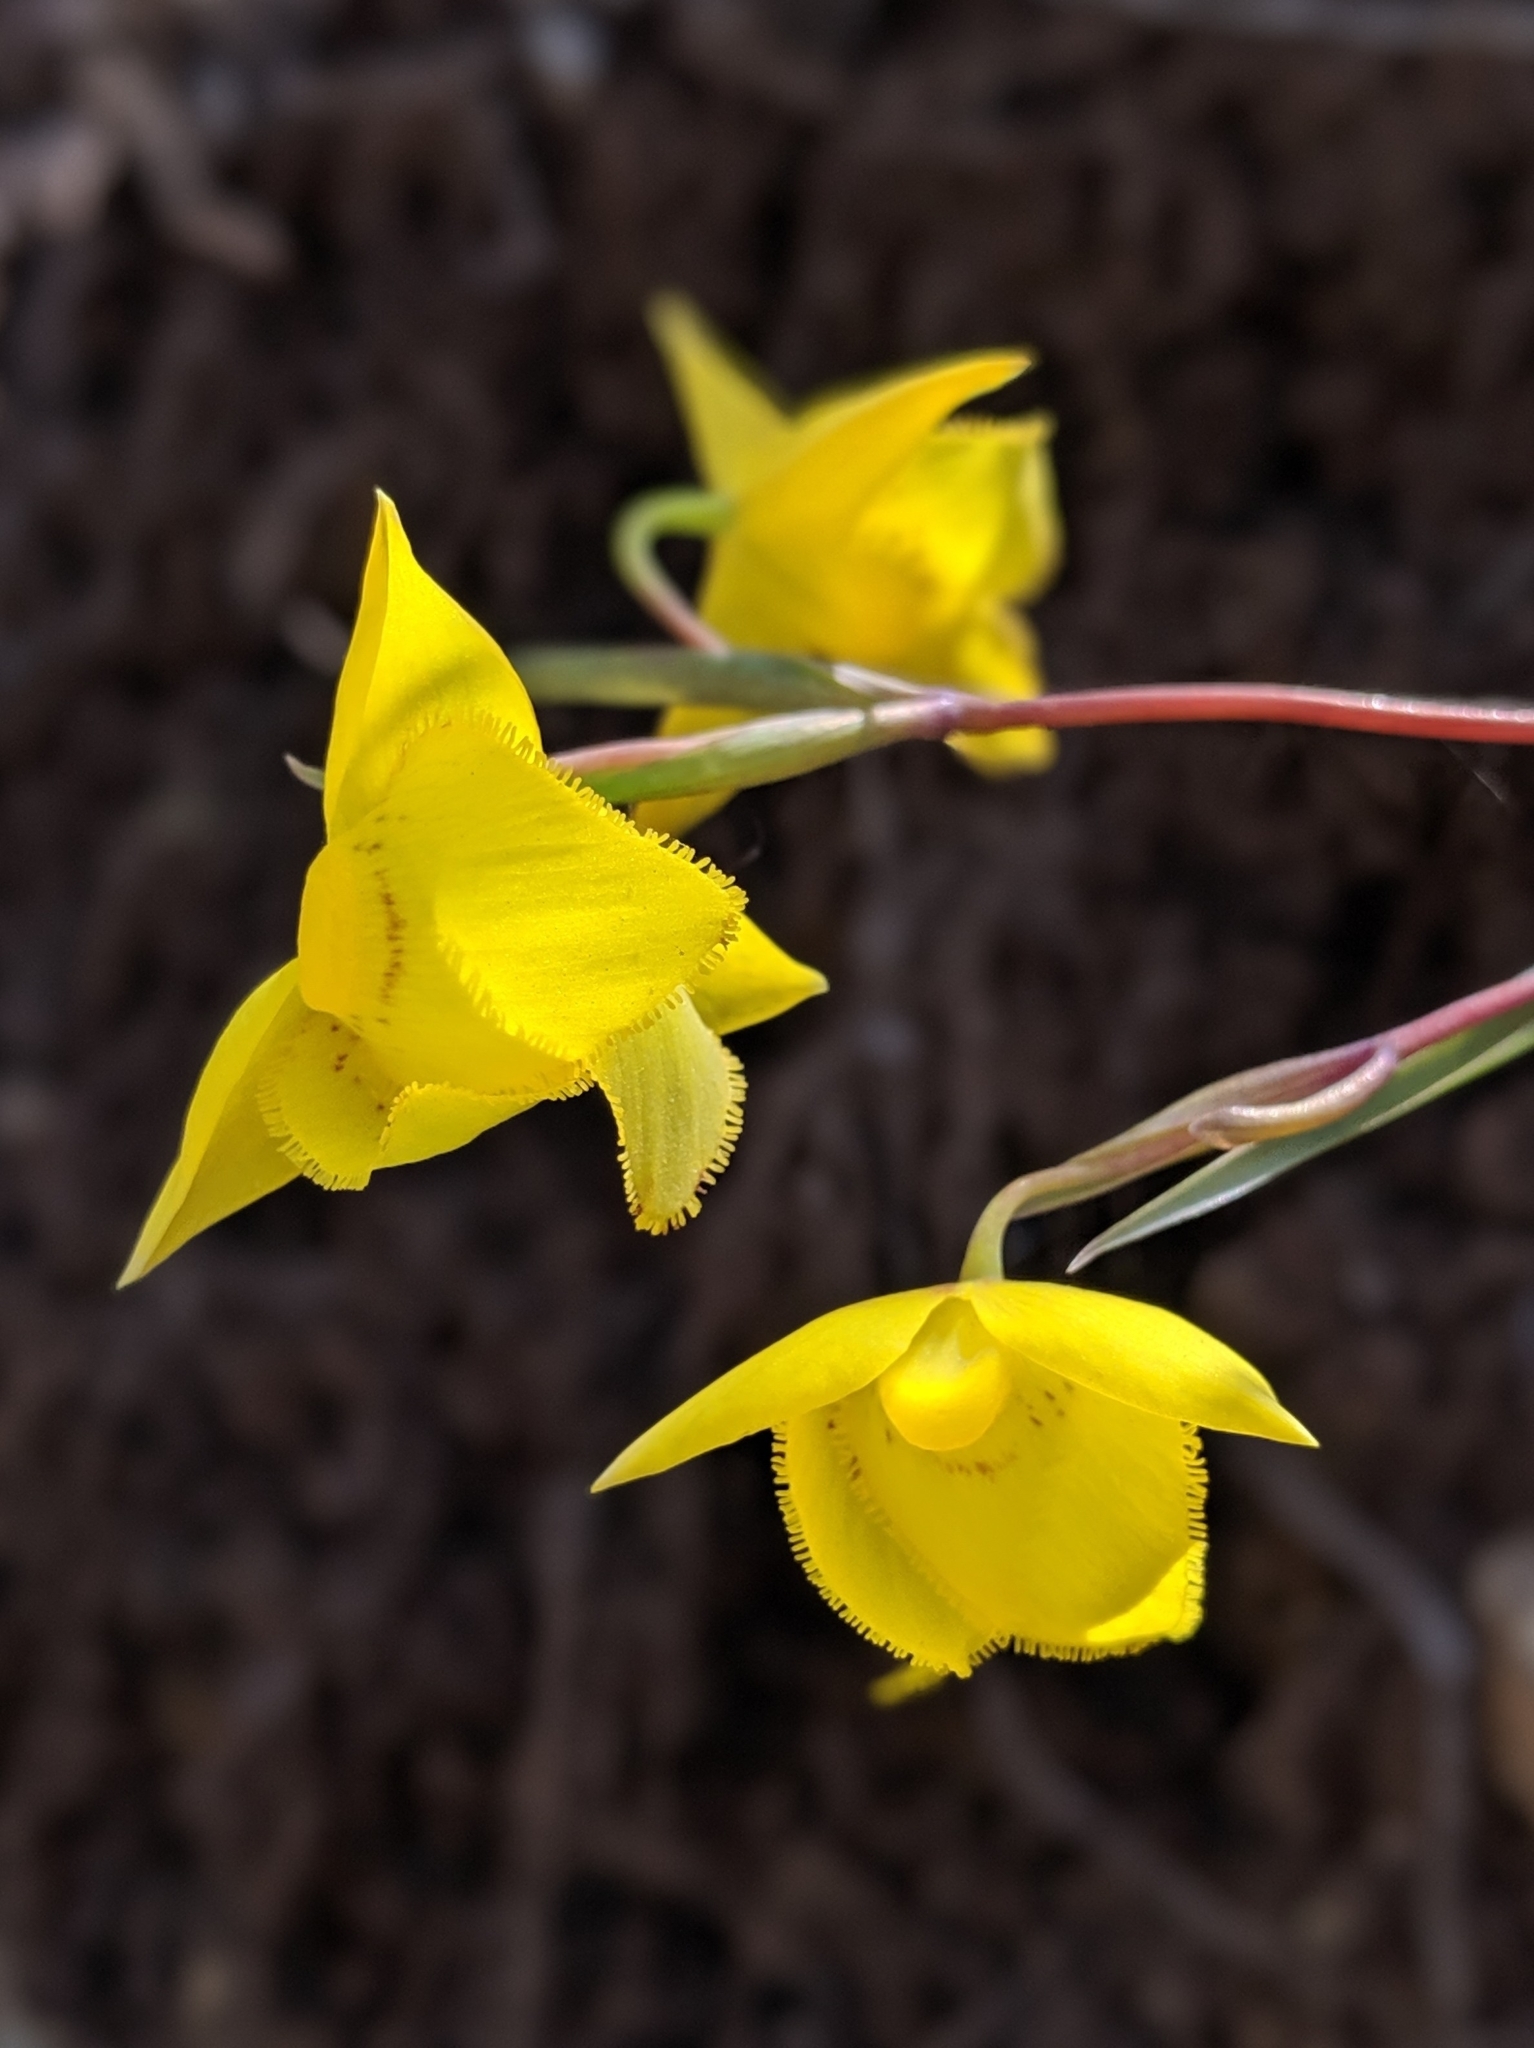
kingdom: Plantae
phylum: Tracheophyta
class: Liliopsida
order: Liliales
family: Liliaceae
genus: Calochortus
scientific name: Calochortus amabilis
